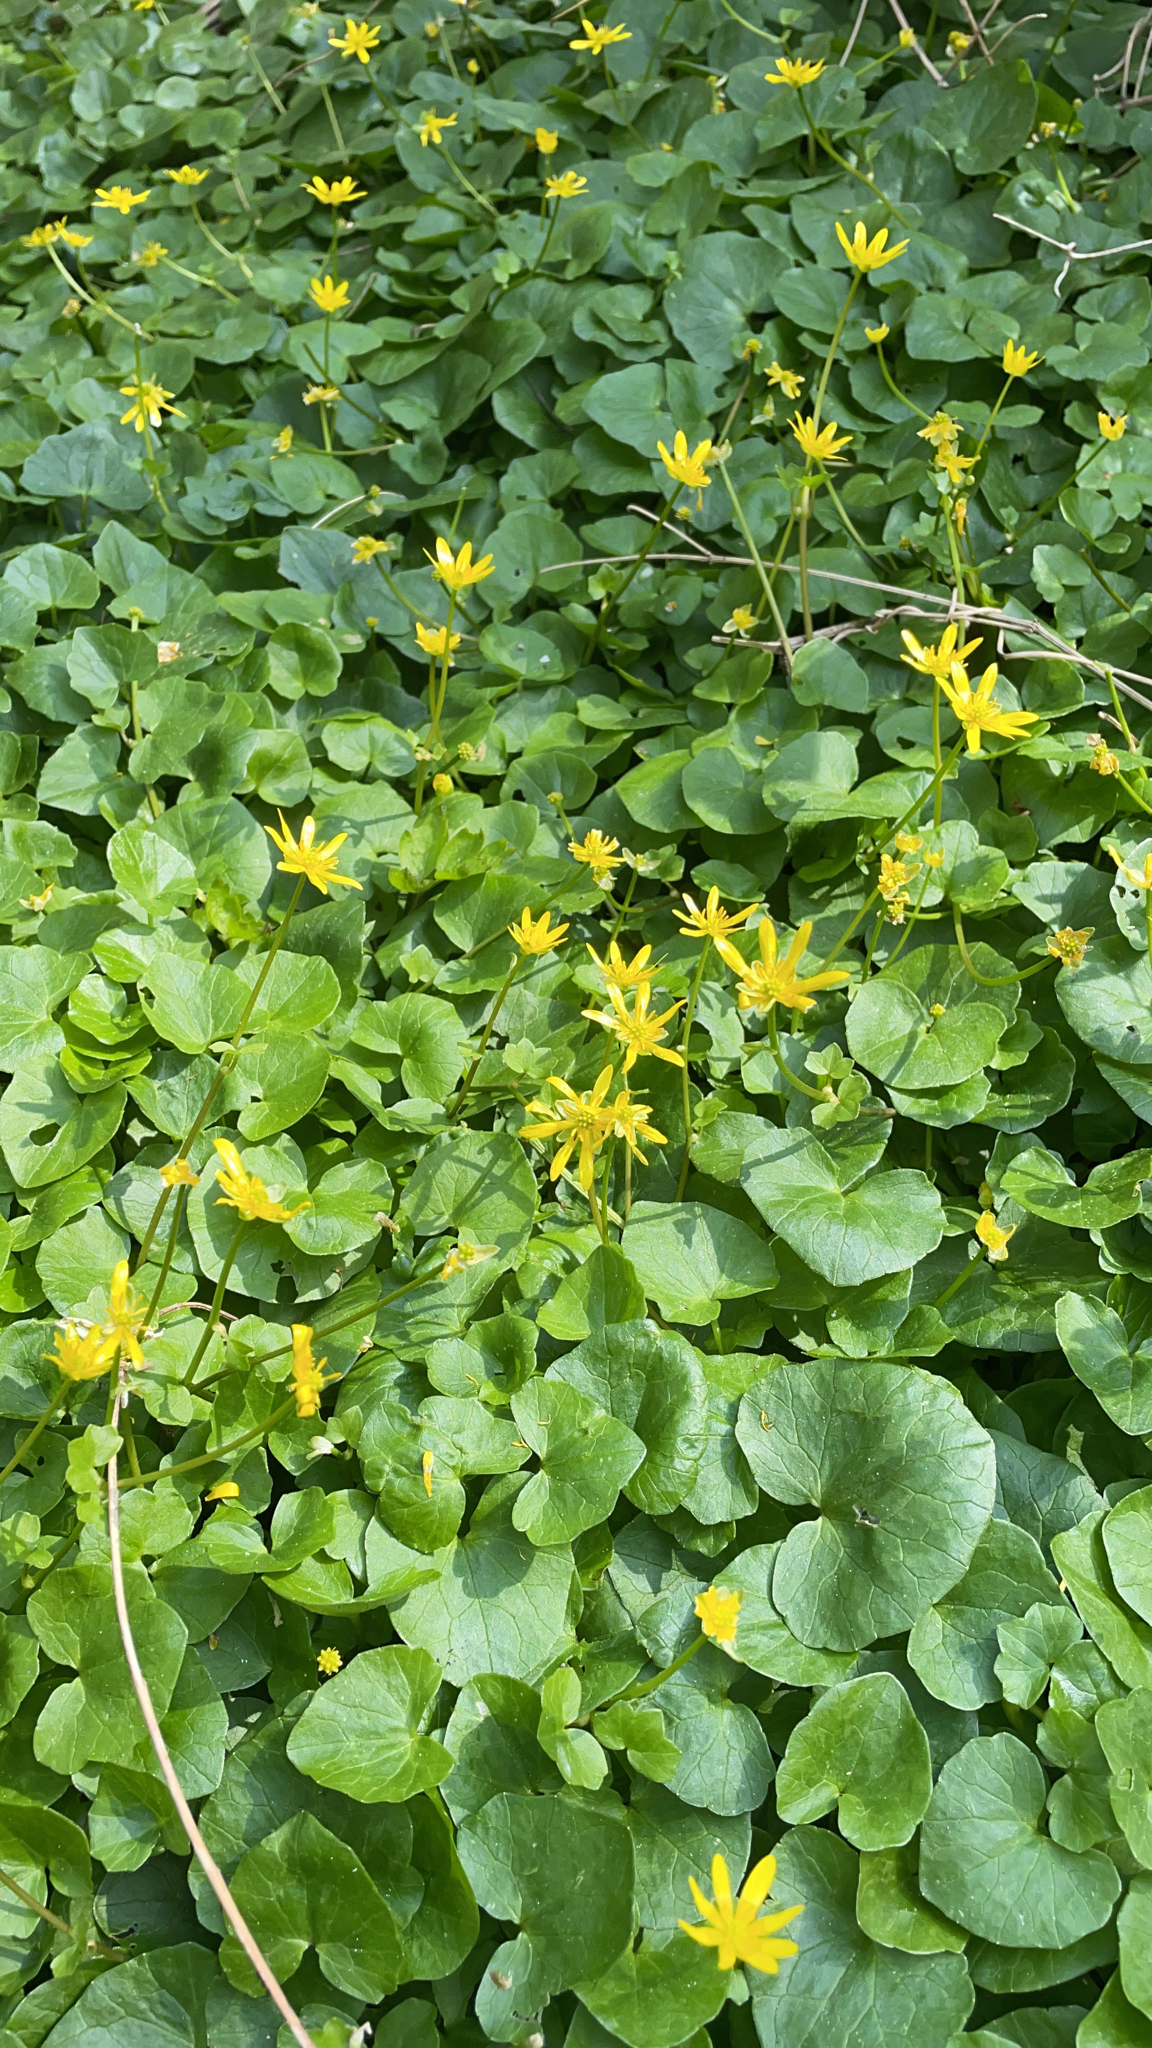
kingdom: Plantae
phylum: Tracheophyta
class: Magnoliopsida
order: Ranunculales
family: Ranunculaceae
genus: Ficaria
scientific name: Ficaria verna
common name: Lesser celandine
